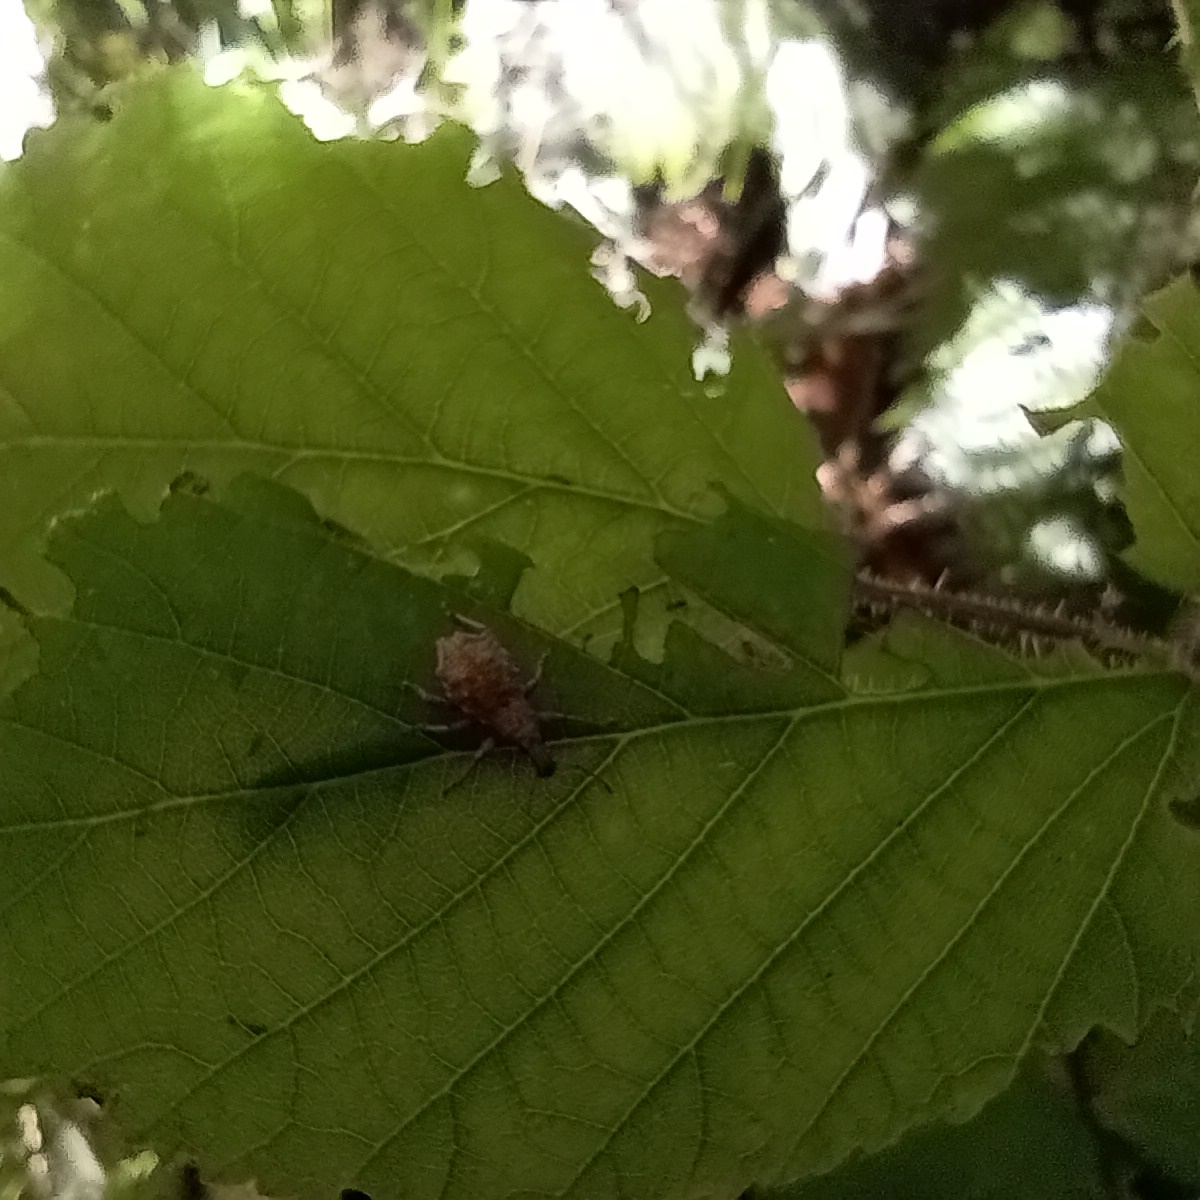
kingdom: Animalia
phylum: Arthropoda
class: Insecta
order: Coleoptera
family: Curculionidae
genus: Catoptes
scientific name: Catoptes censorius
